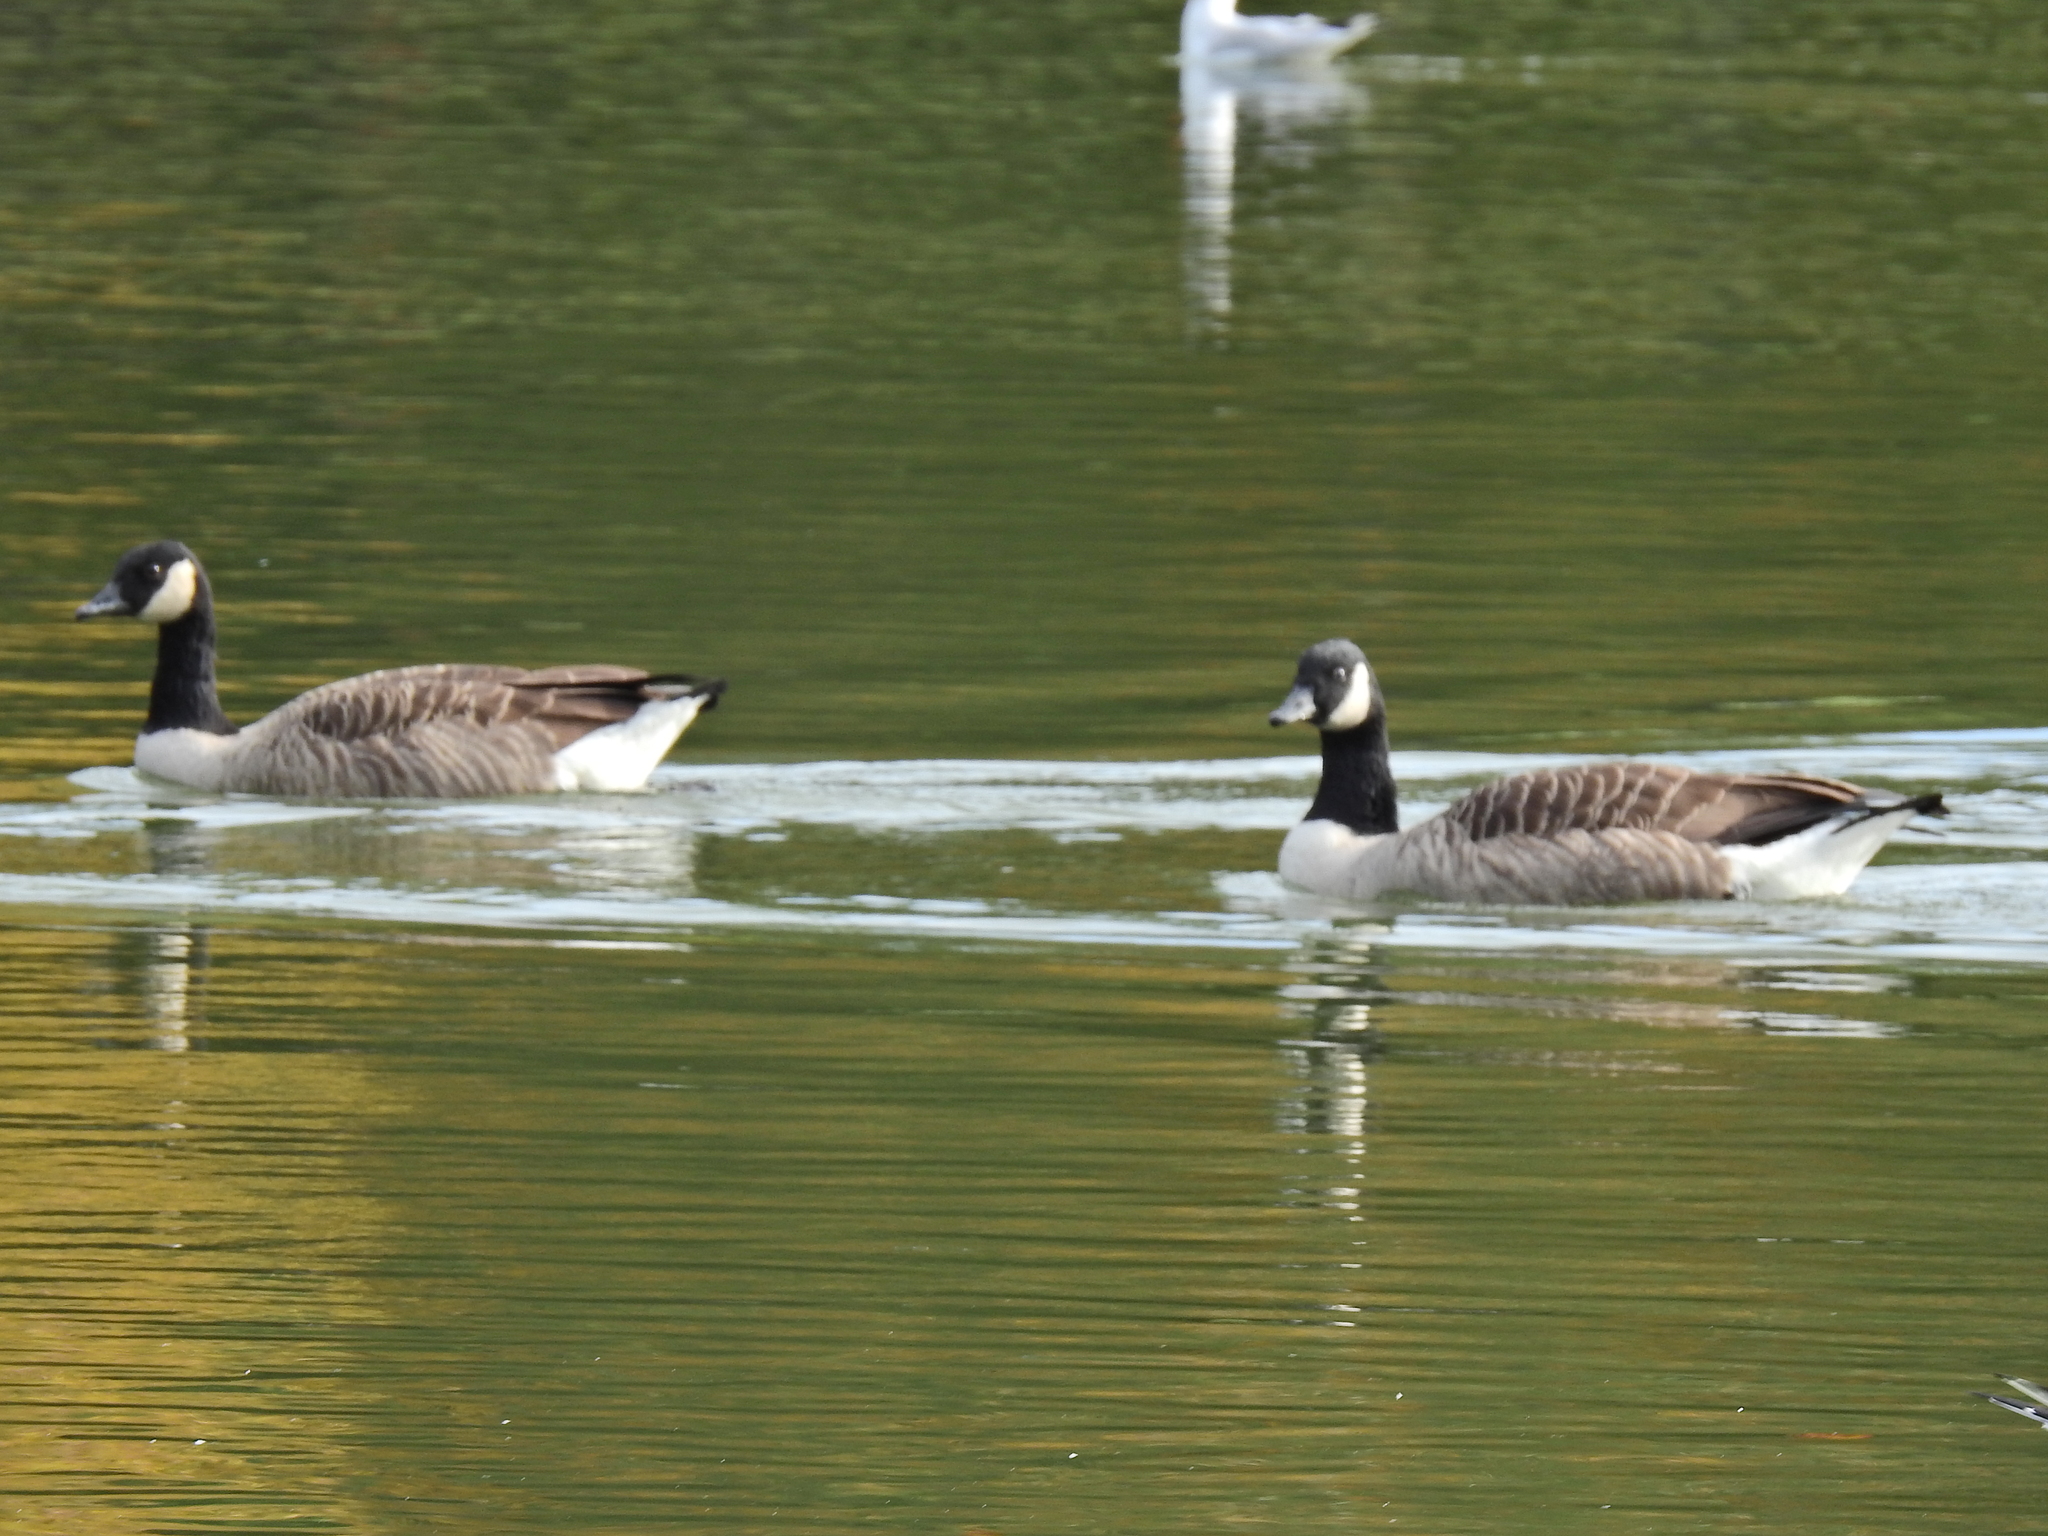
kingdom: Animalia
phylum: Chordata
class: Aves
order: Anseriformes
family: Anatidae
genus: Branta
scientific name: Branta canadensis
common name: Canada goose
